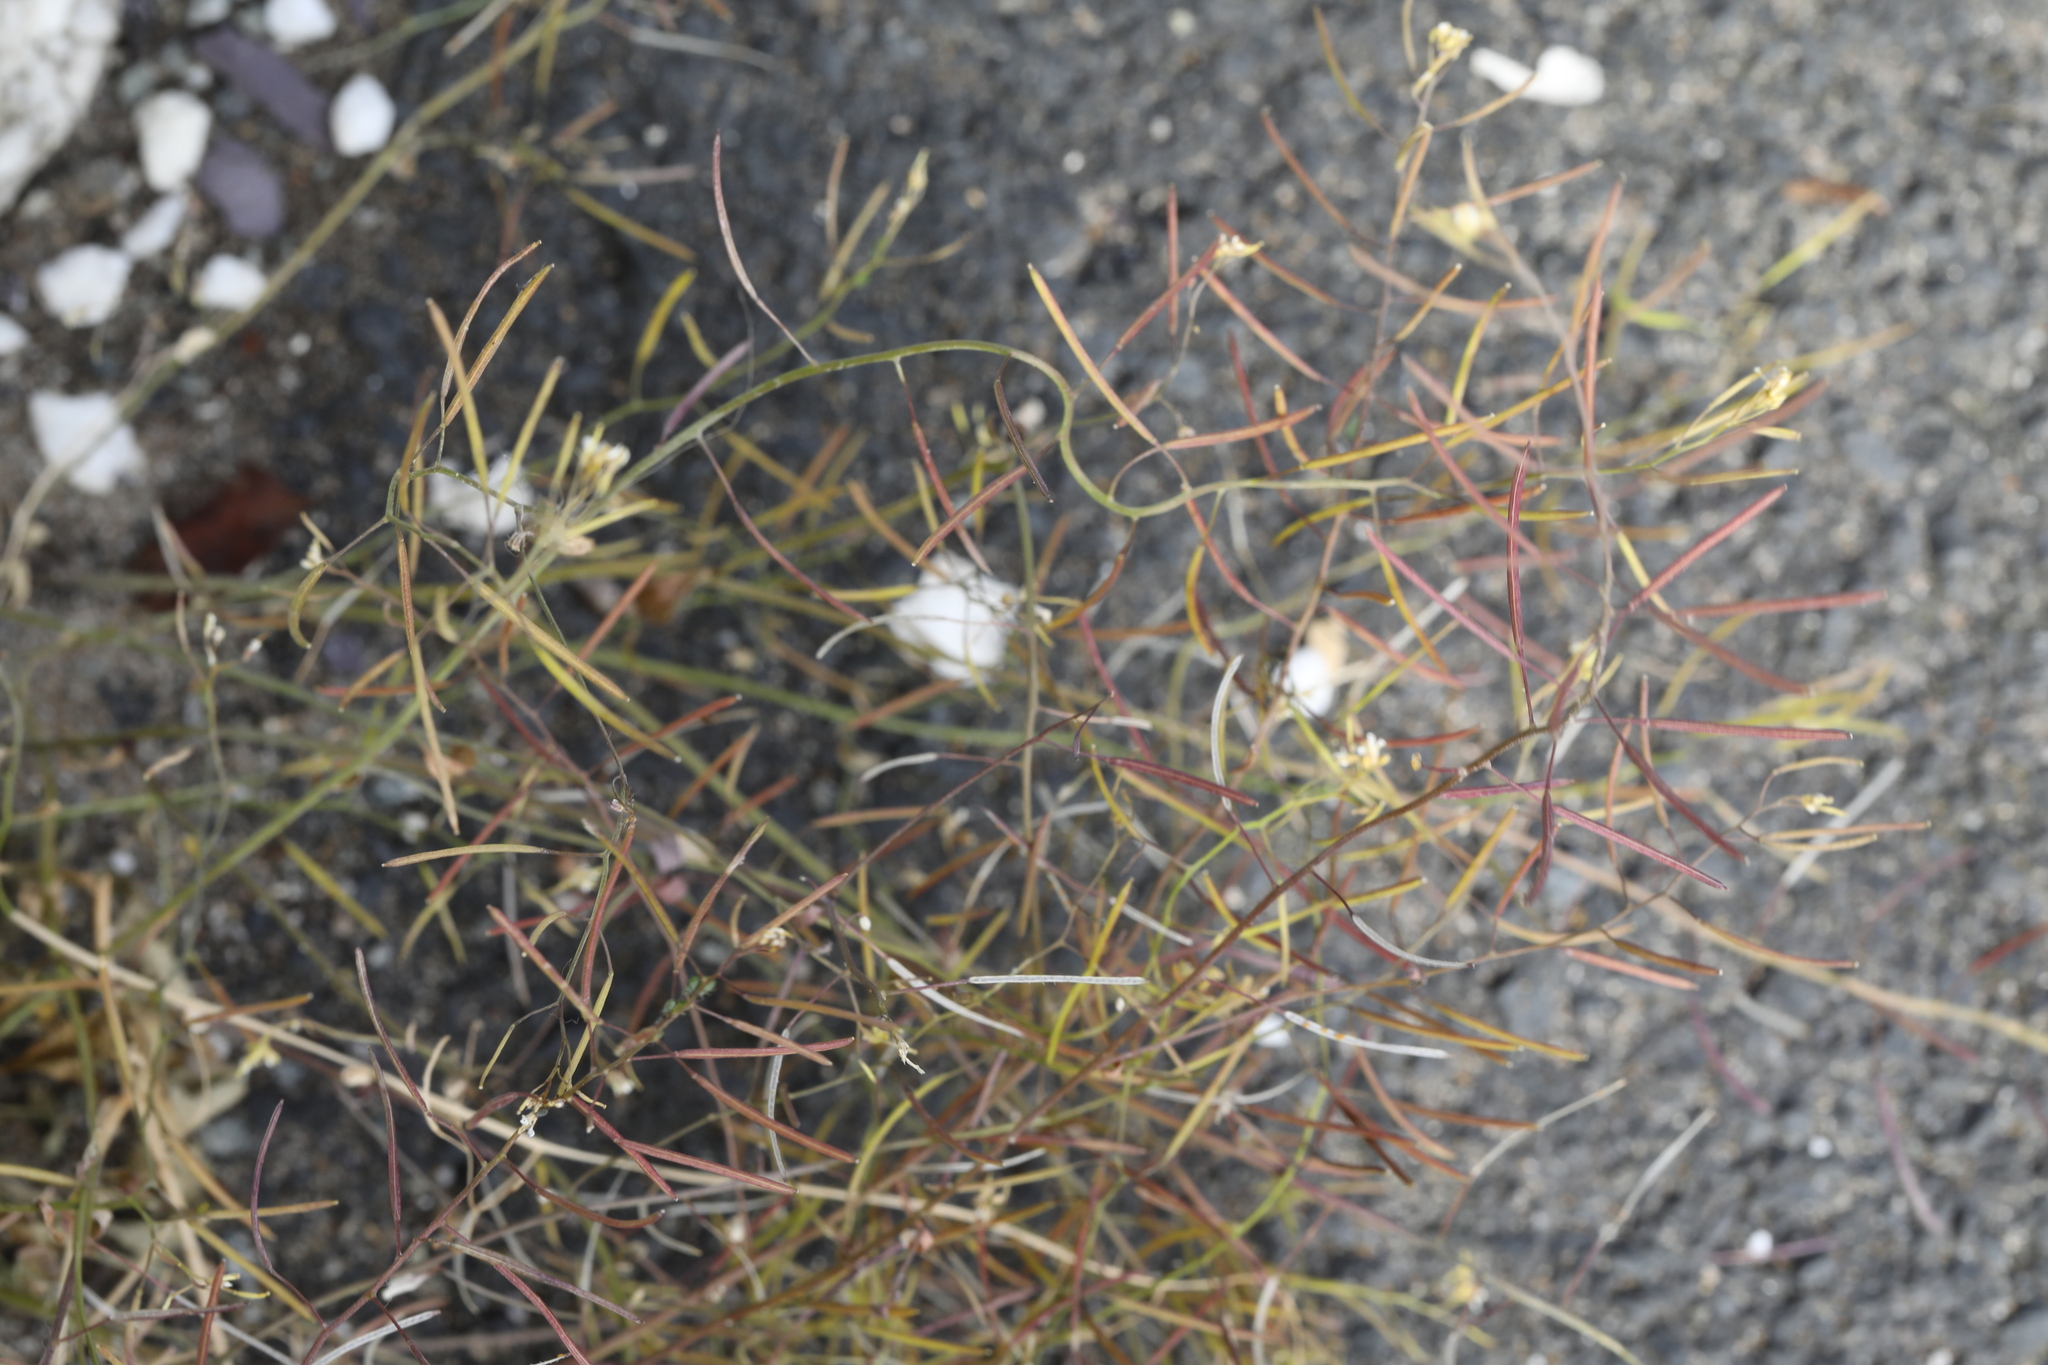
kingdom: Plantae
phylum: Tracheophyta
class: Magnoliopsida
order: Brassicales
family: Brassicaceae
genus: Arabidopsis
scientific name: Arabidopsis thaliana
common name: Thale cress
